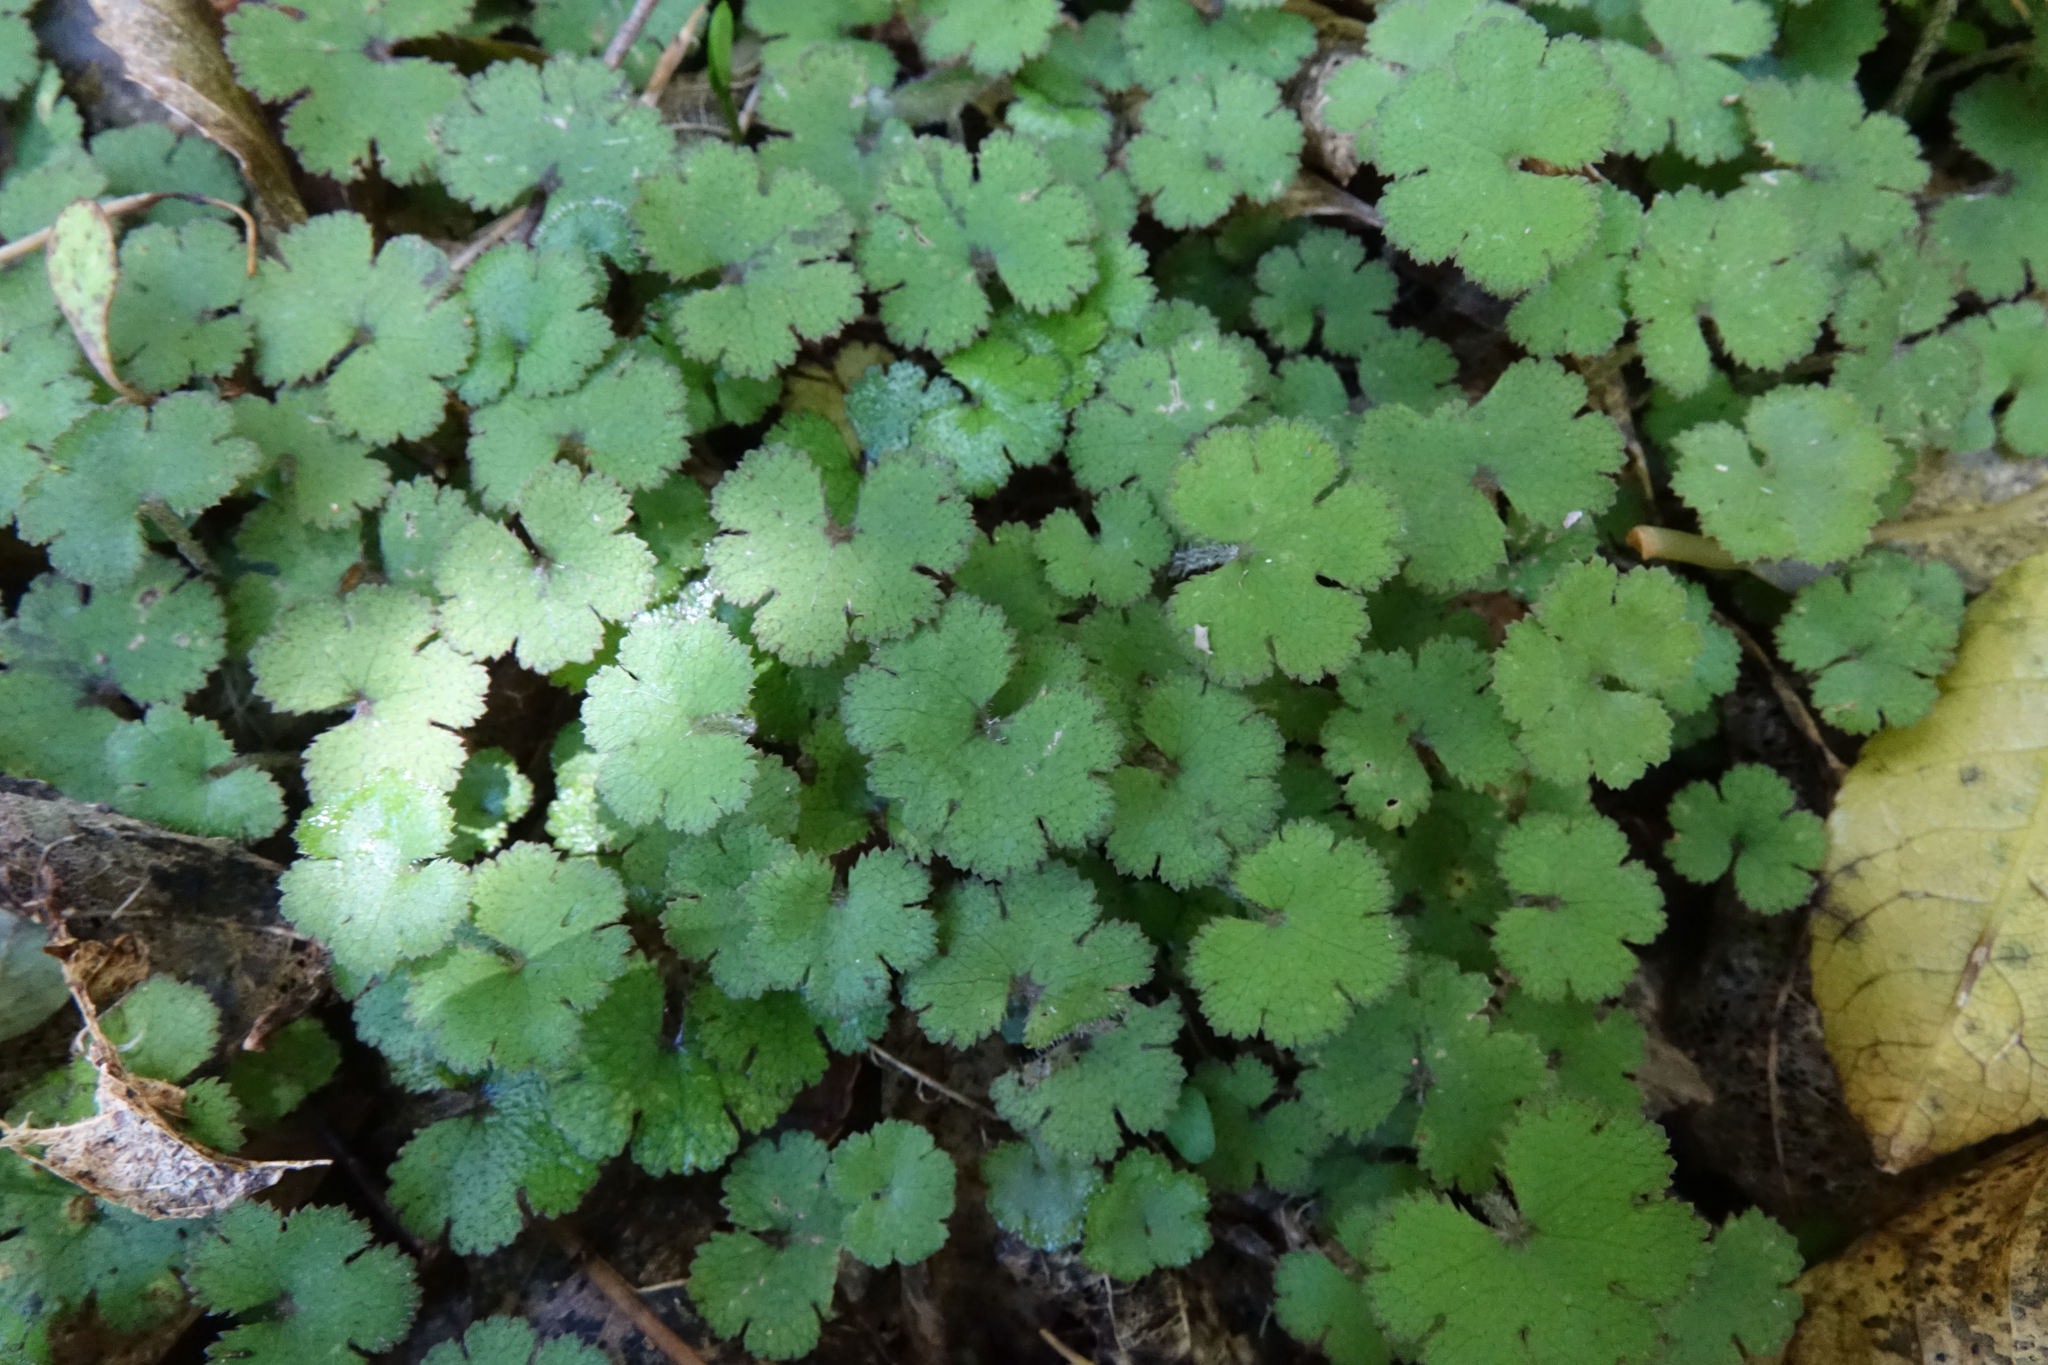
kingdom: Plantae
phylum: Tracheophyta
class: Magnoliopsida
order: Apiales
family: Araliaceae
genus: Hydrocotyle
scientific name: Hydrocotyle elongata
